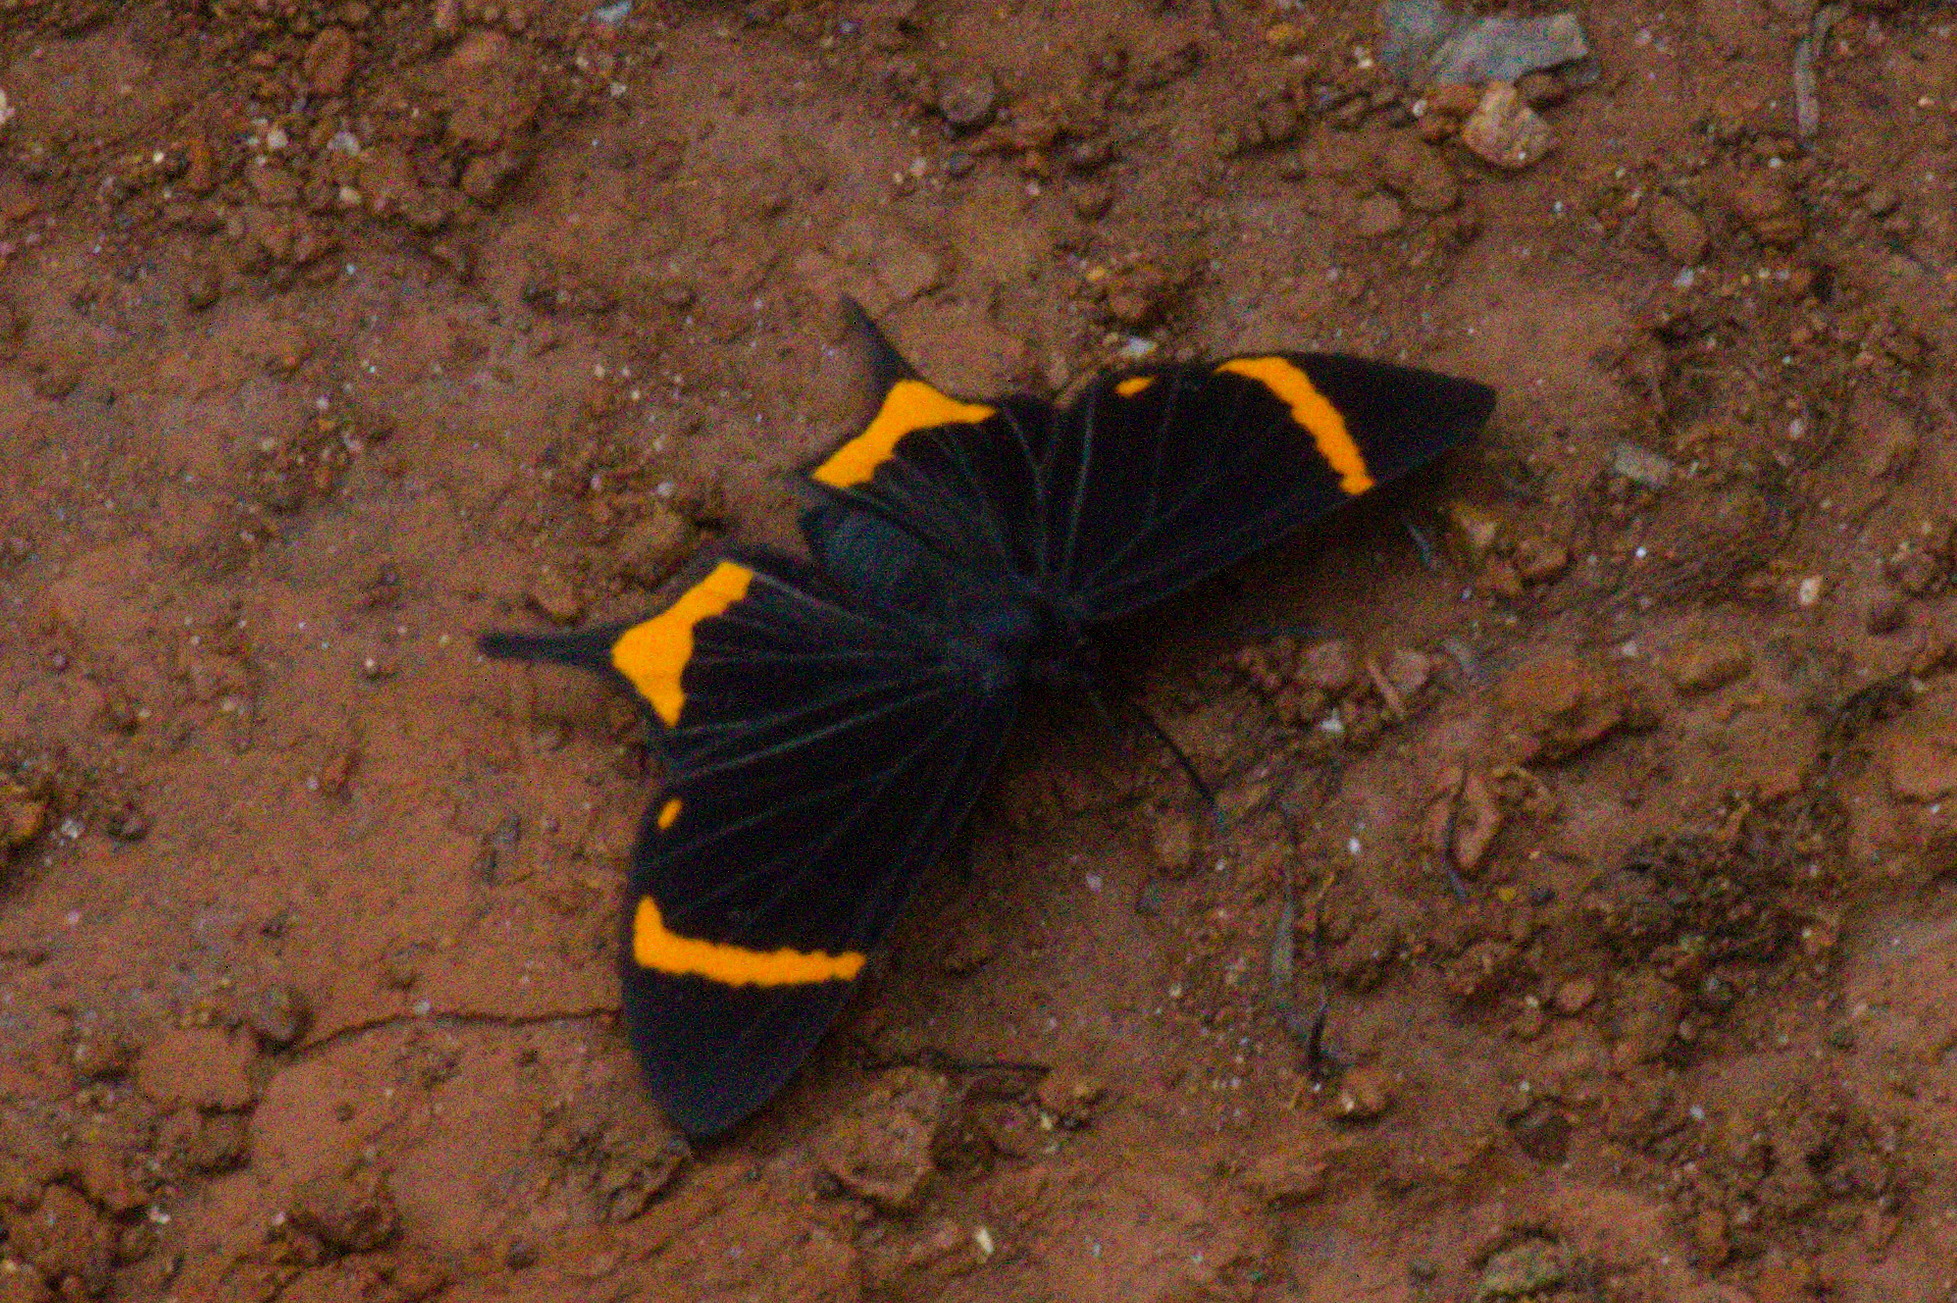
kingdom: Animalia
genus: Barbicornis
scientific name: Barbicornis basilis
